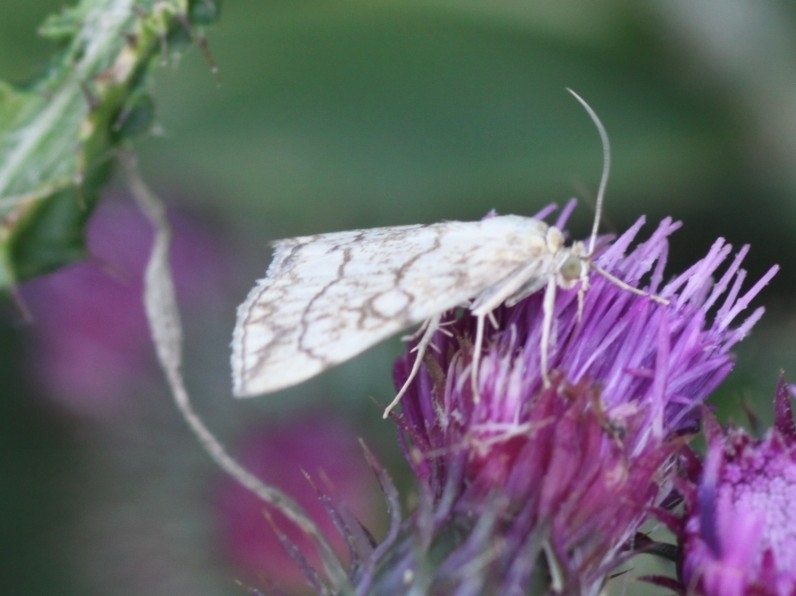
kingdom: Animalia
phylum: Arthropoda
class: Insecta
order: Lepidoptera
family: Crambidae
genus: Evergestis
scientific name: Evergestis pallidata
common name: Chequered pearl
